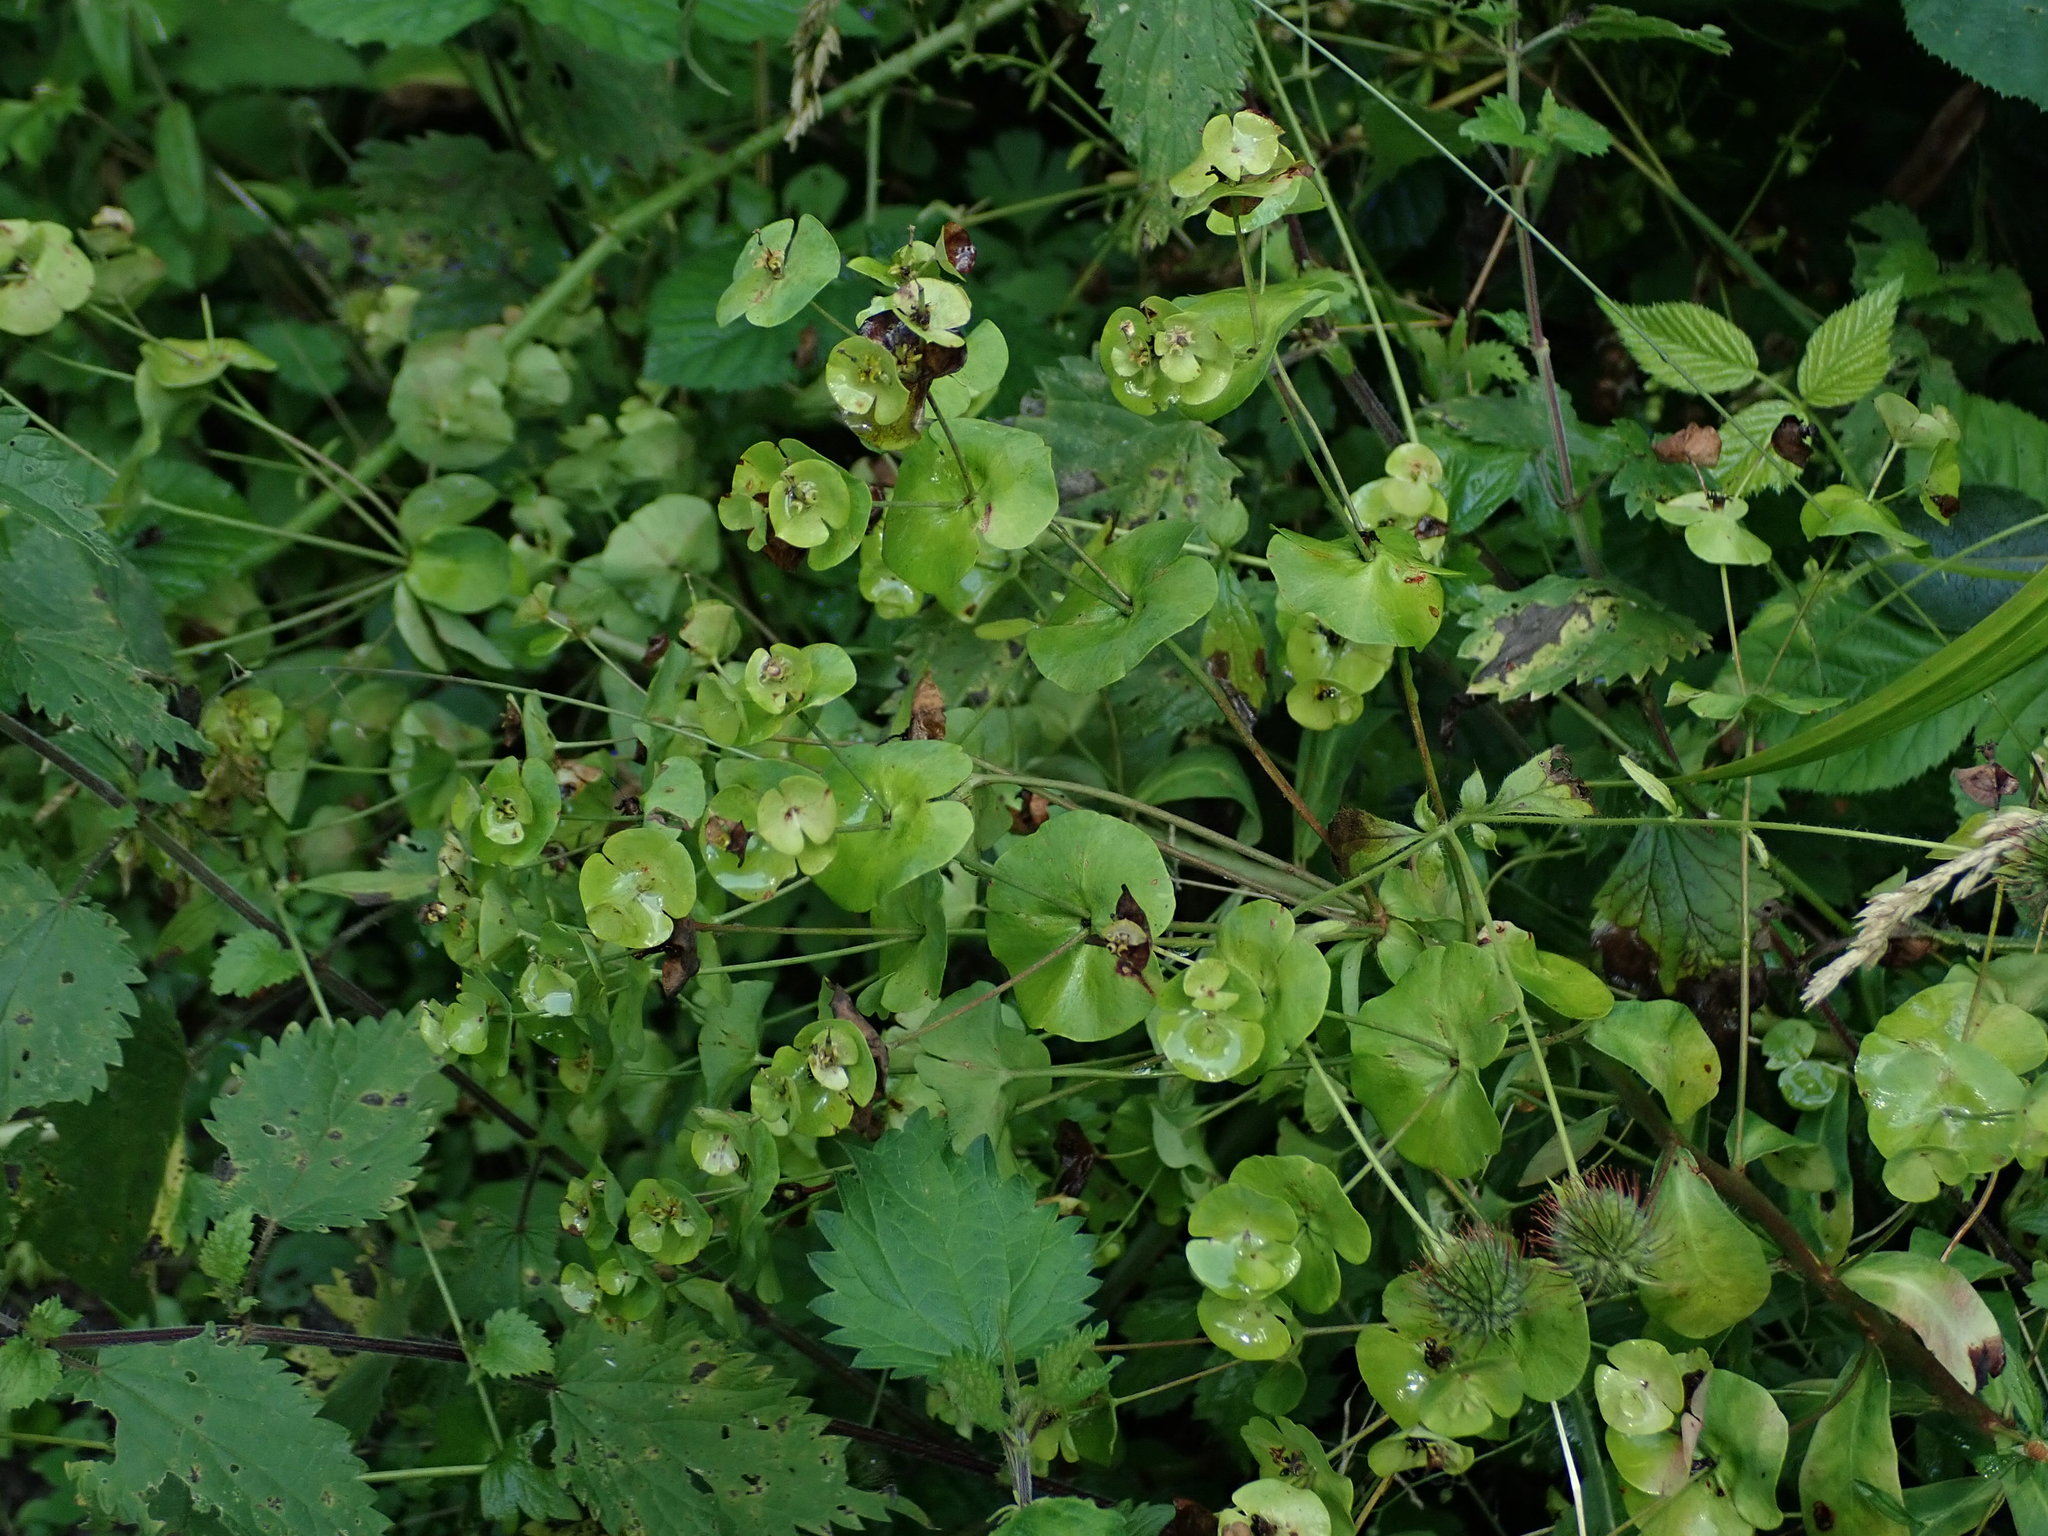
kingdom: Plantae
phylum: Tracheophyta
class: Magnoliopsida
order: Malpighiales
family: Euphorbiaceae
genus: Euphorbia
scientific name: Euphorbia amygdaloides
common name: Wood spurge
